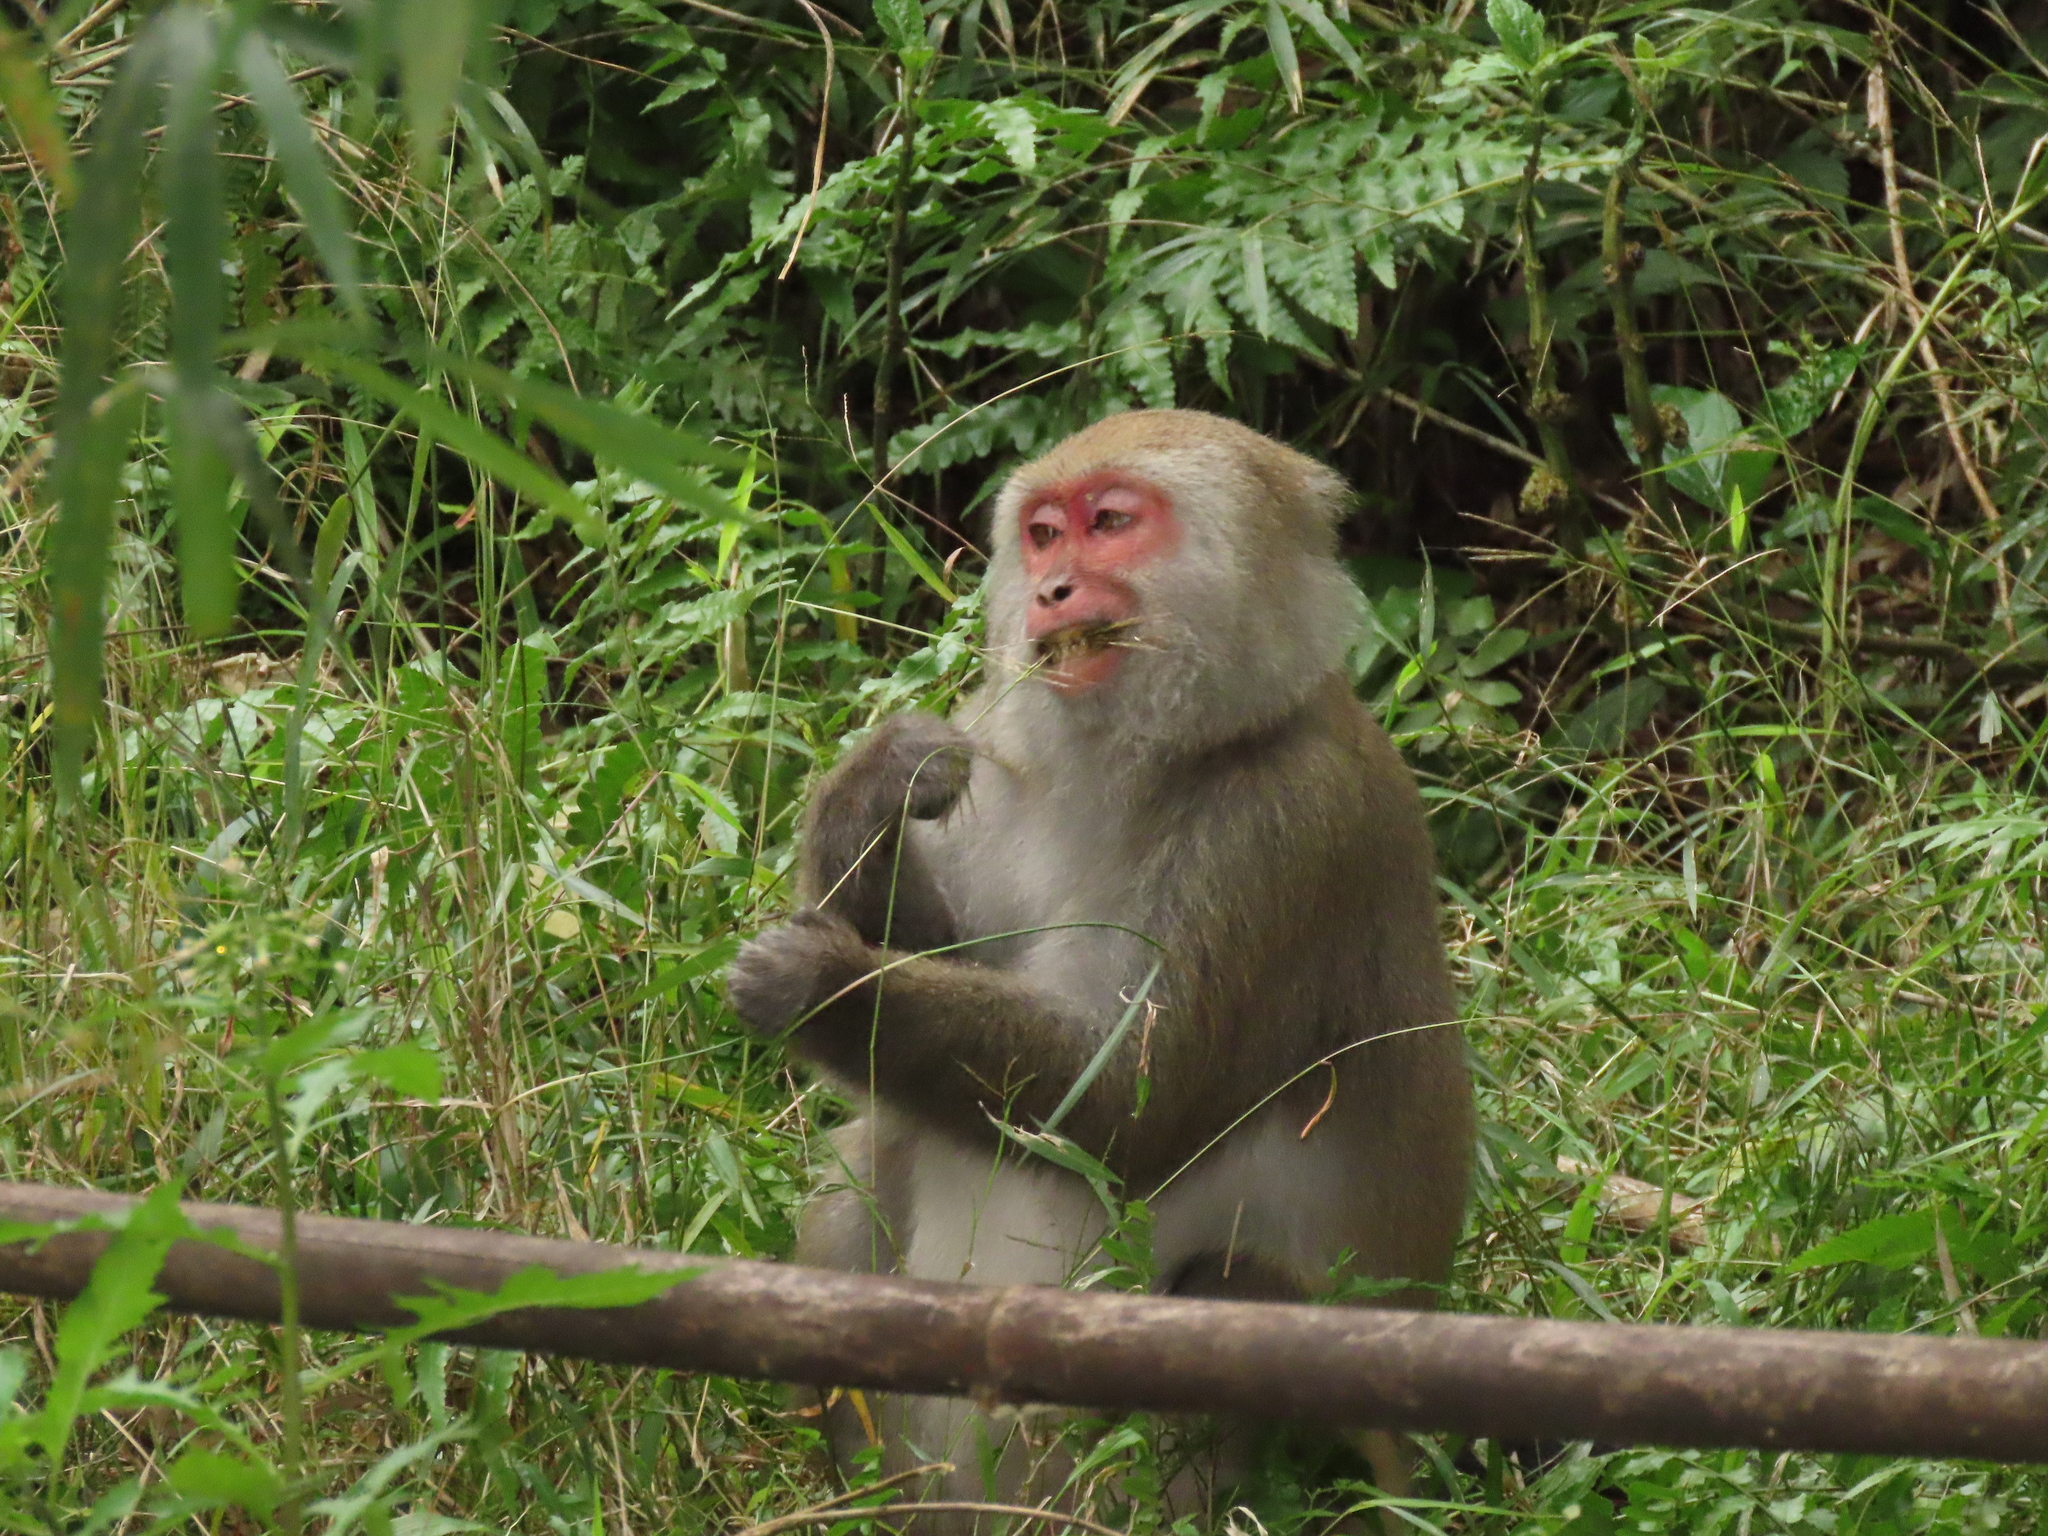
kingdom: Animalia
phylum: Chordata
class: Mammalia
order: Primates
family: Cercopithecidae
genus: Macaca
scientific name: Macaca cyclopis
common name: Formosan rock macaque
